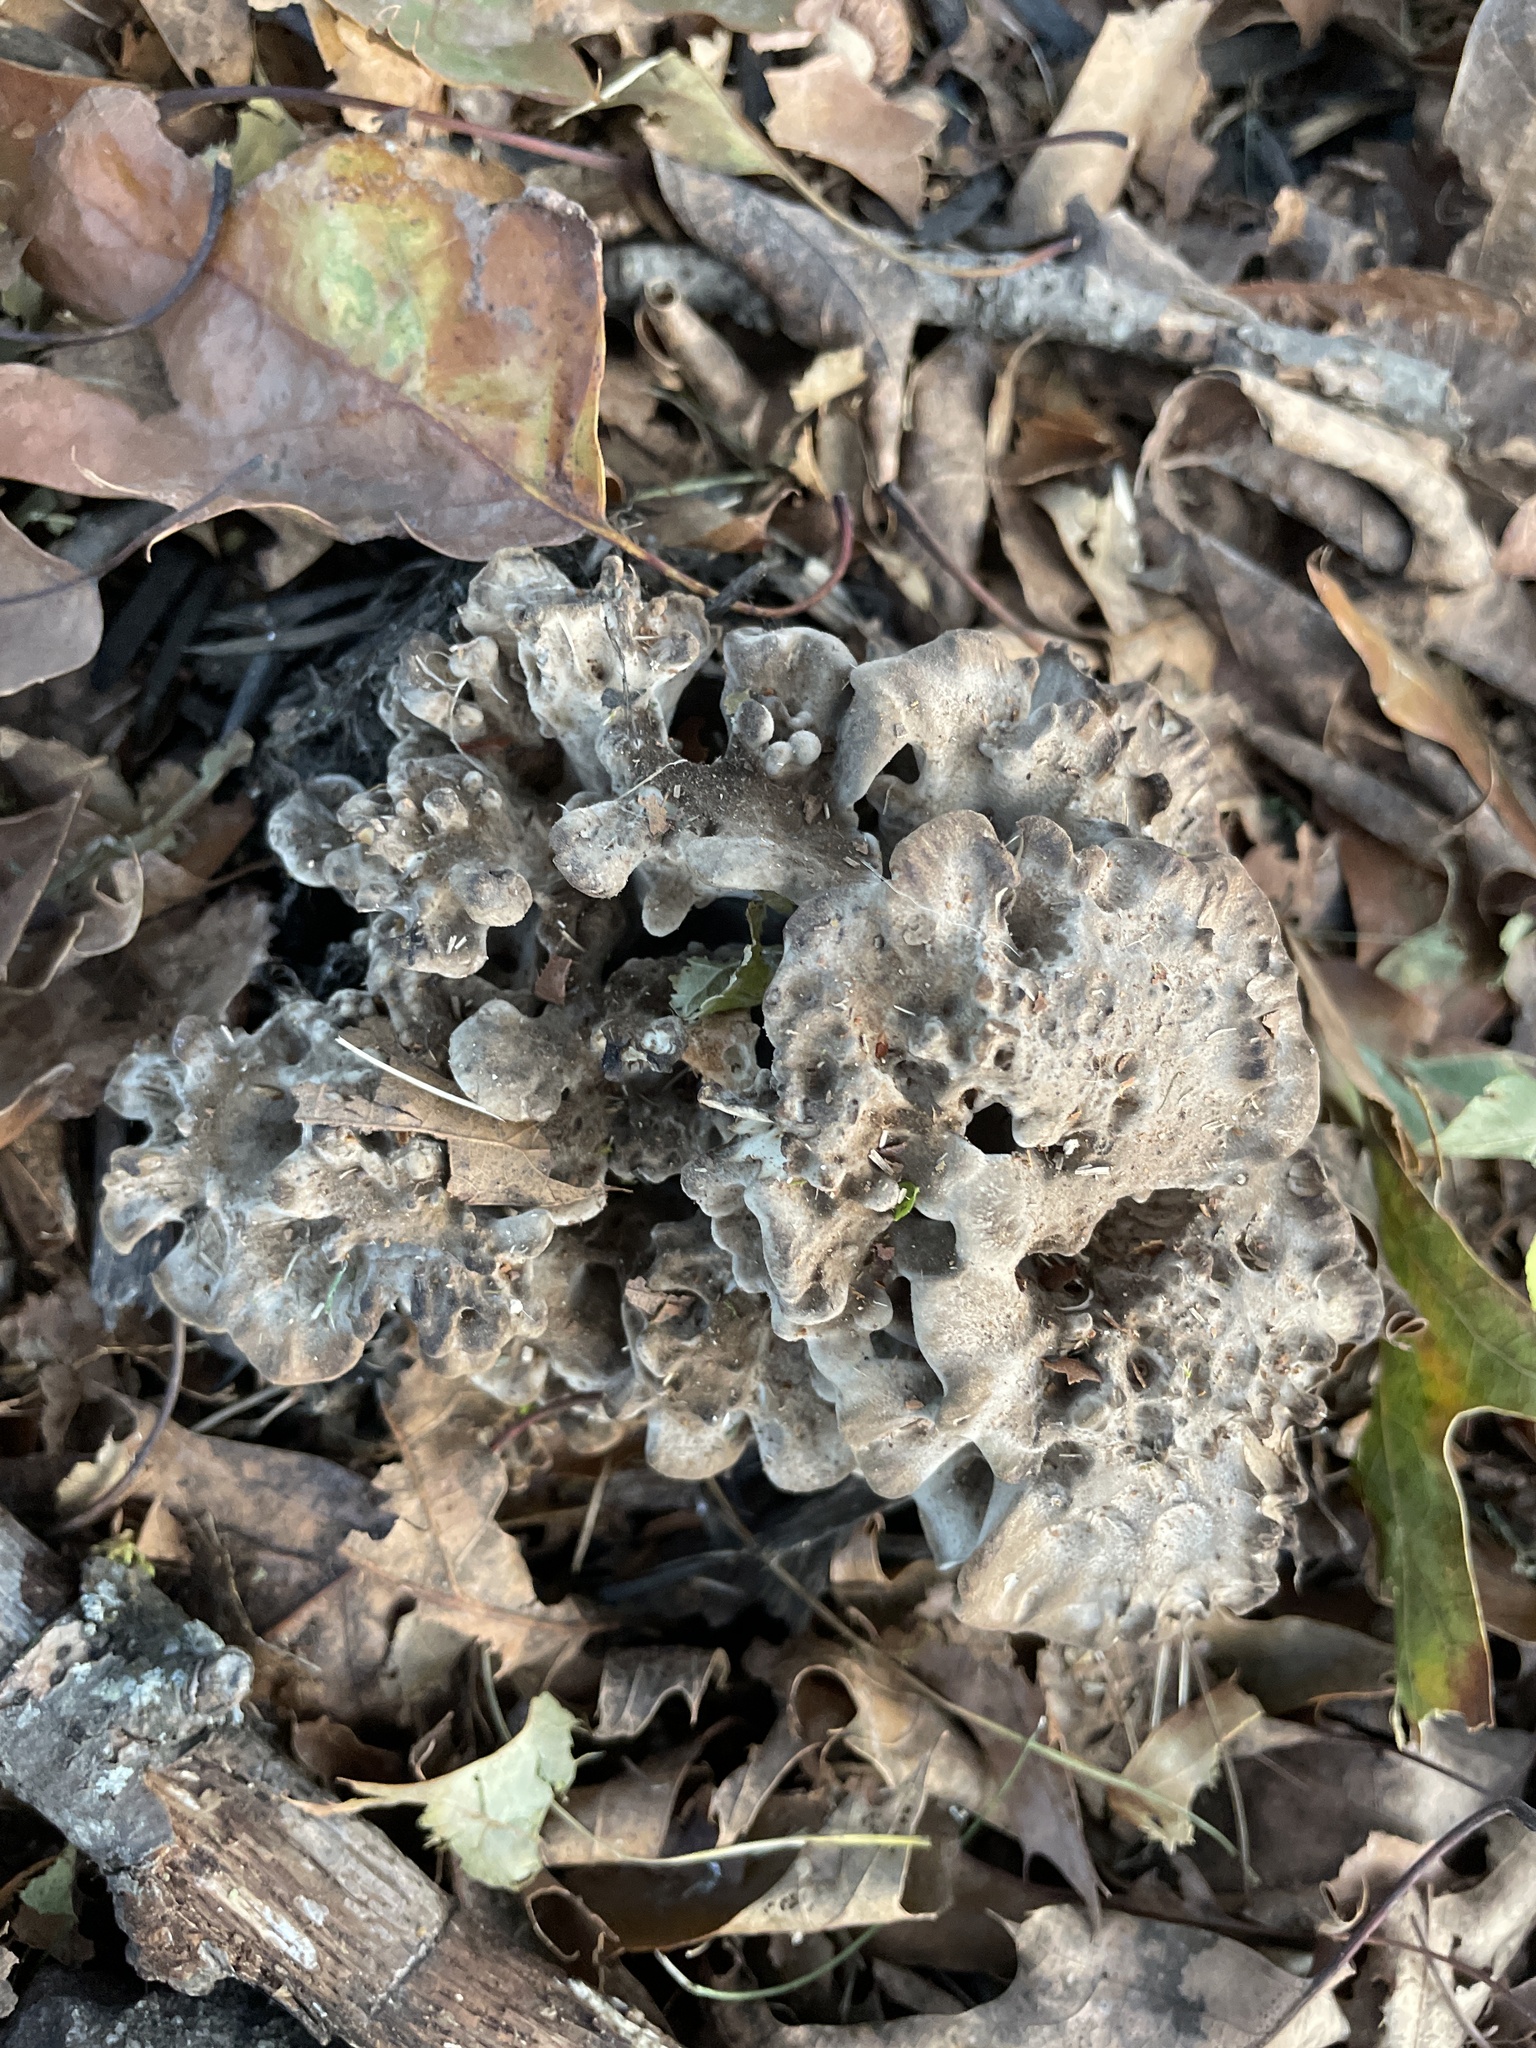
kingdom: Fungi
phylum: Basidiomycota
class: Agaricomycetes
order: Polyporales
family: Grifolaceae
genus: Grifola
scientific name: Grifola frondosa
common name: Hen of the woods
